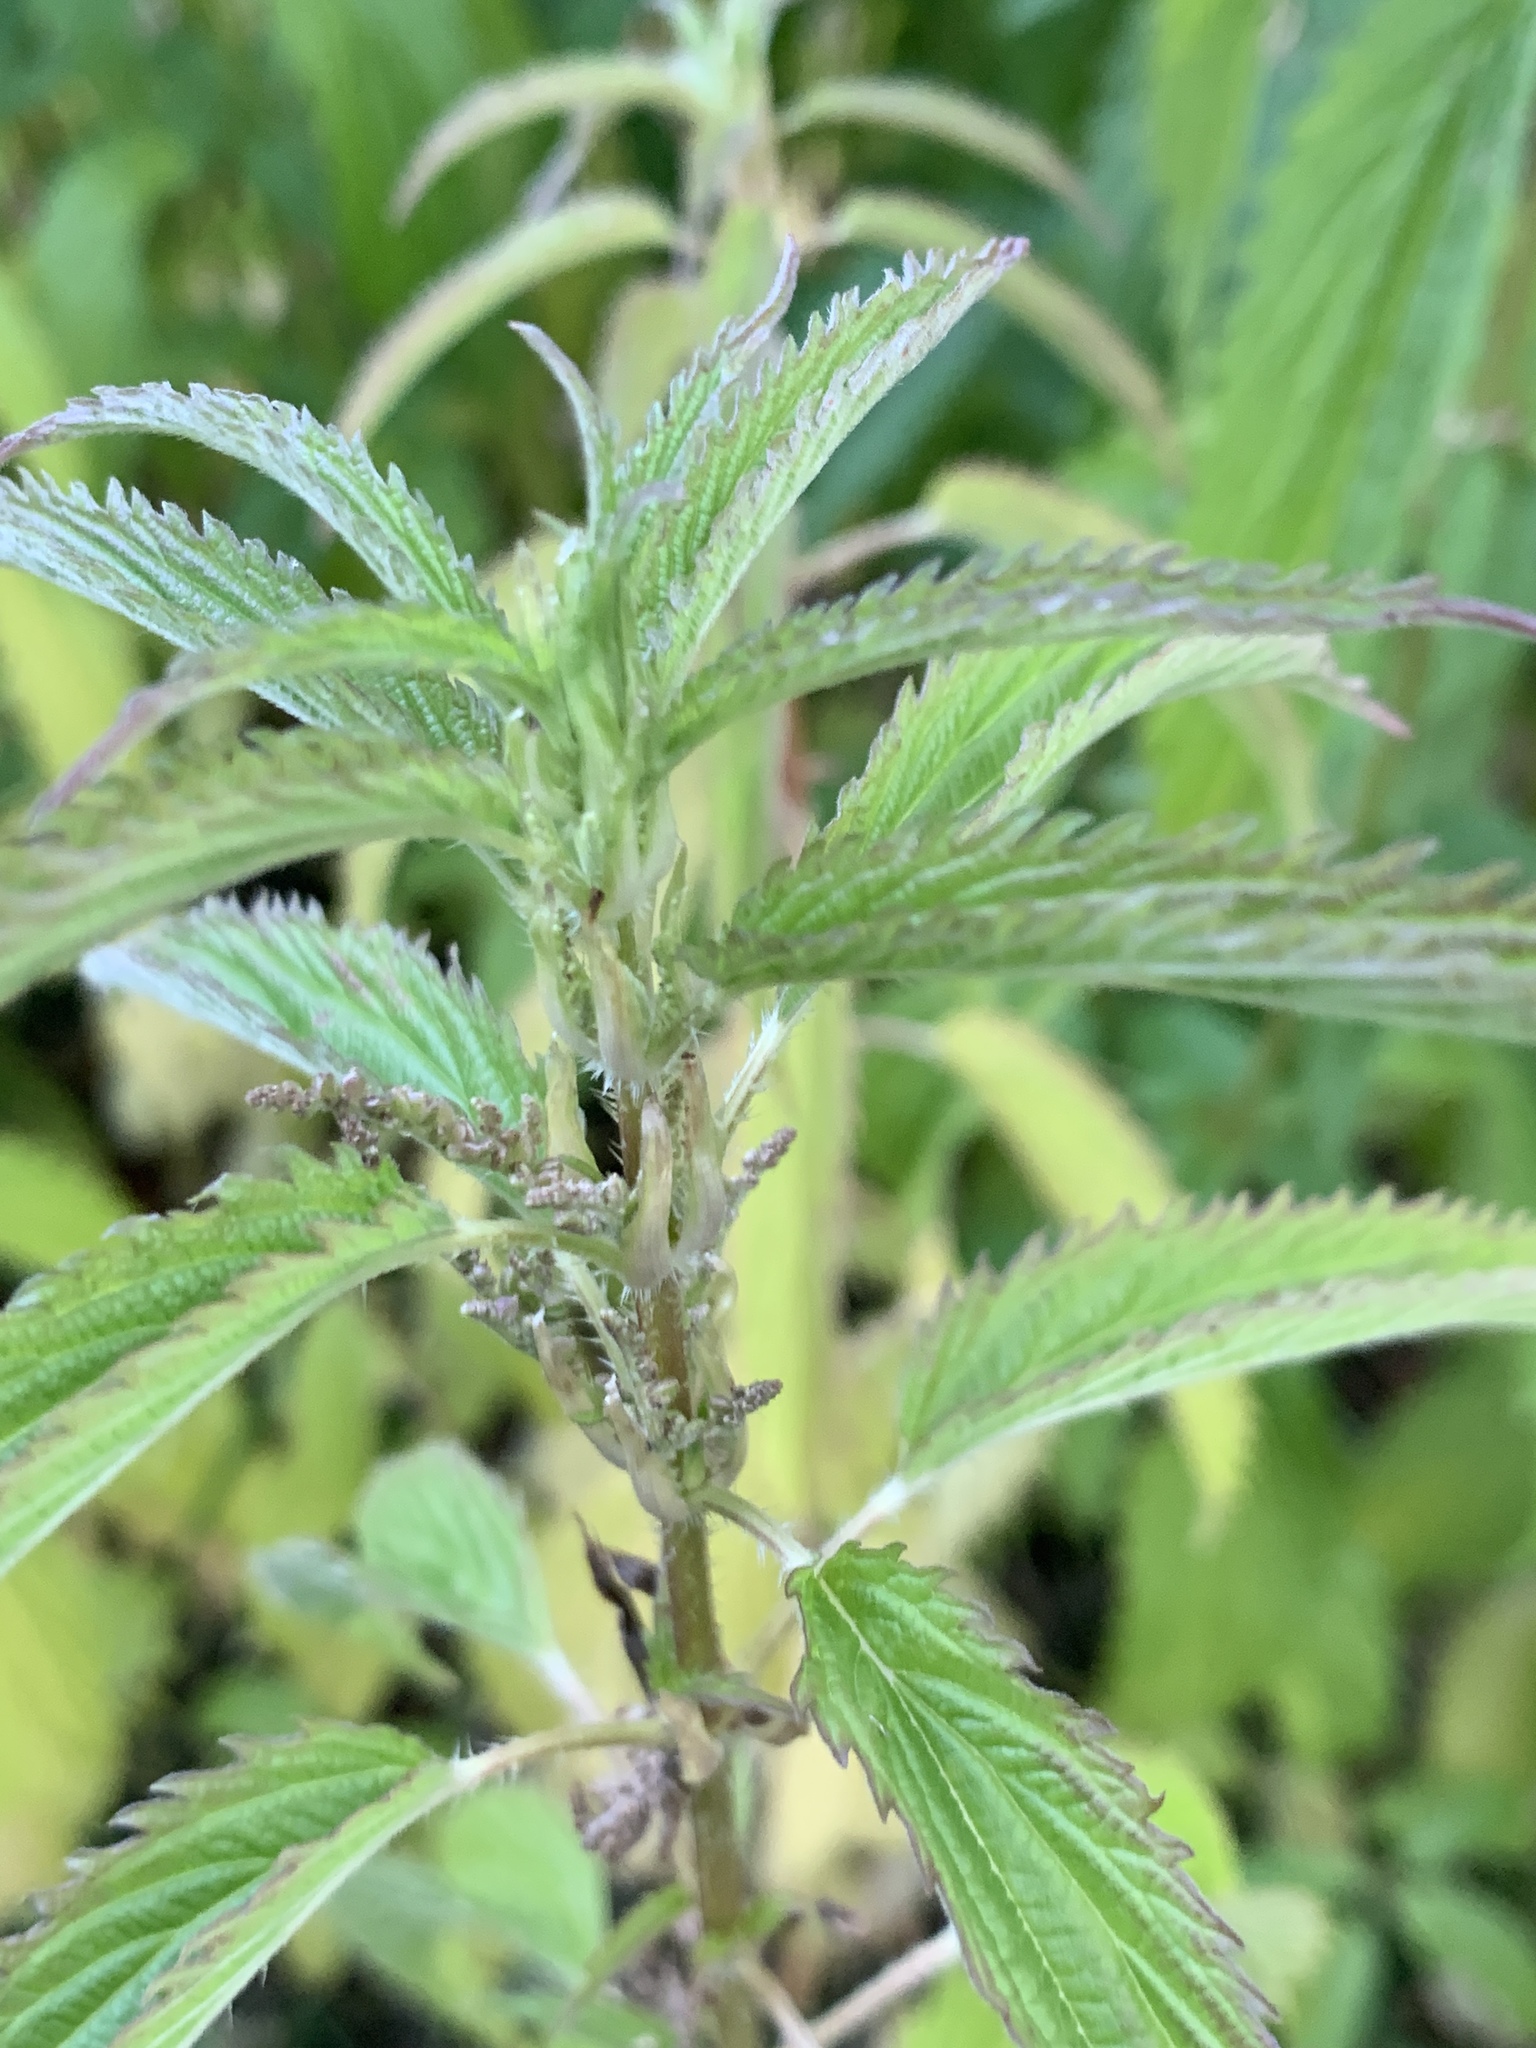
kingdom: Plantae
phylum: Tracheophyta
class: Magnoliopsida
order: Rosales
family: Urticaceae
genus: Urtica
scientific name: Urtica gracilis
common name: Slender stinging nettle
